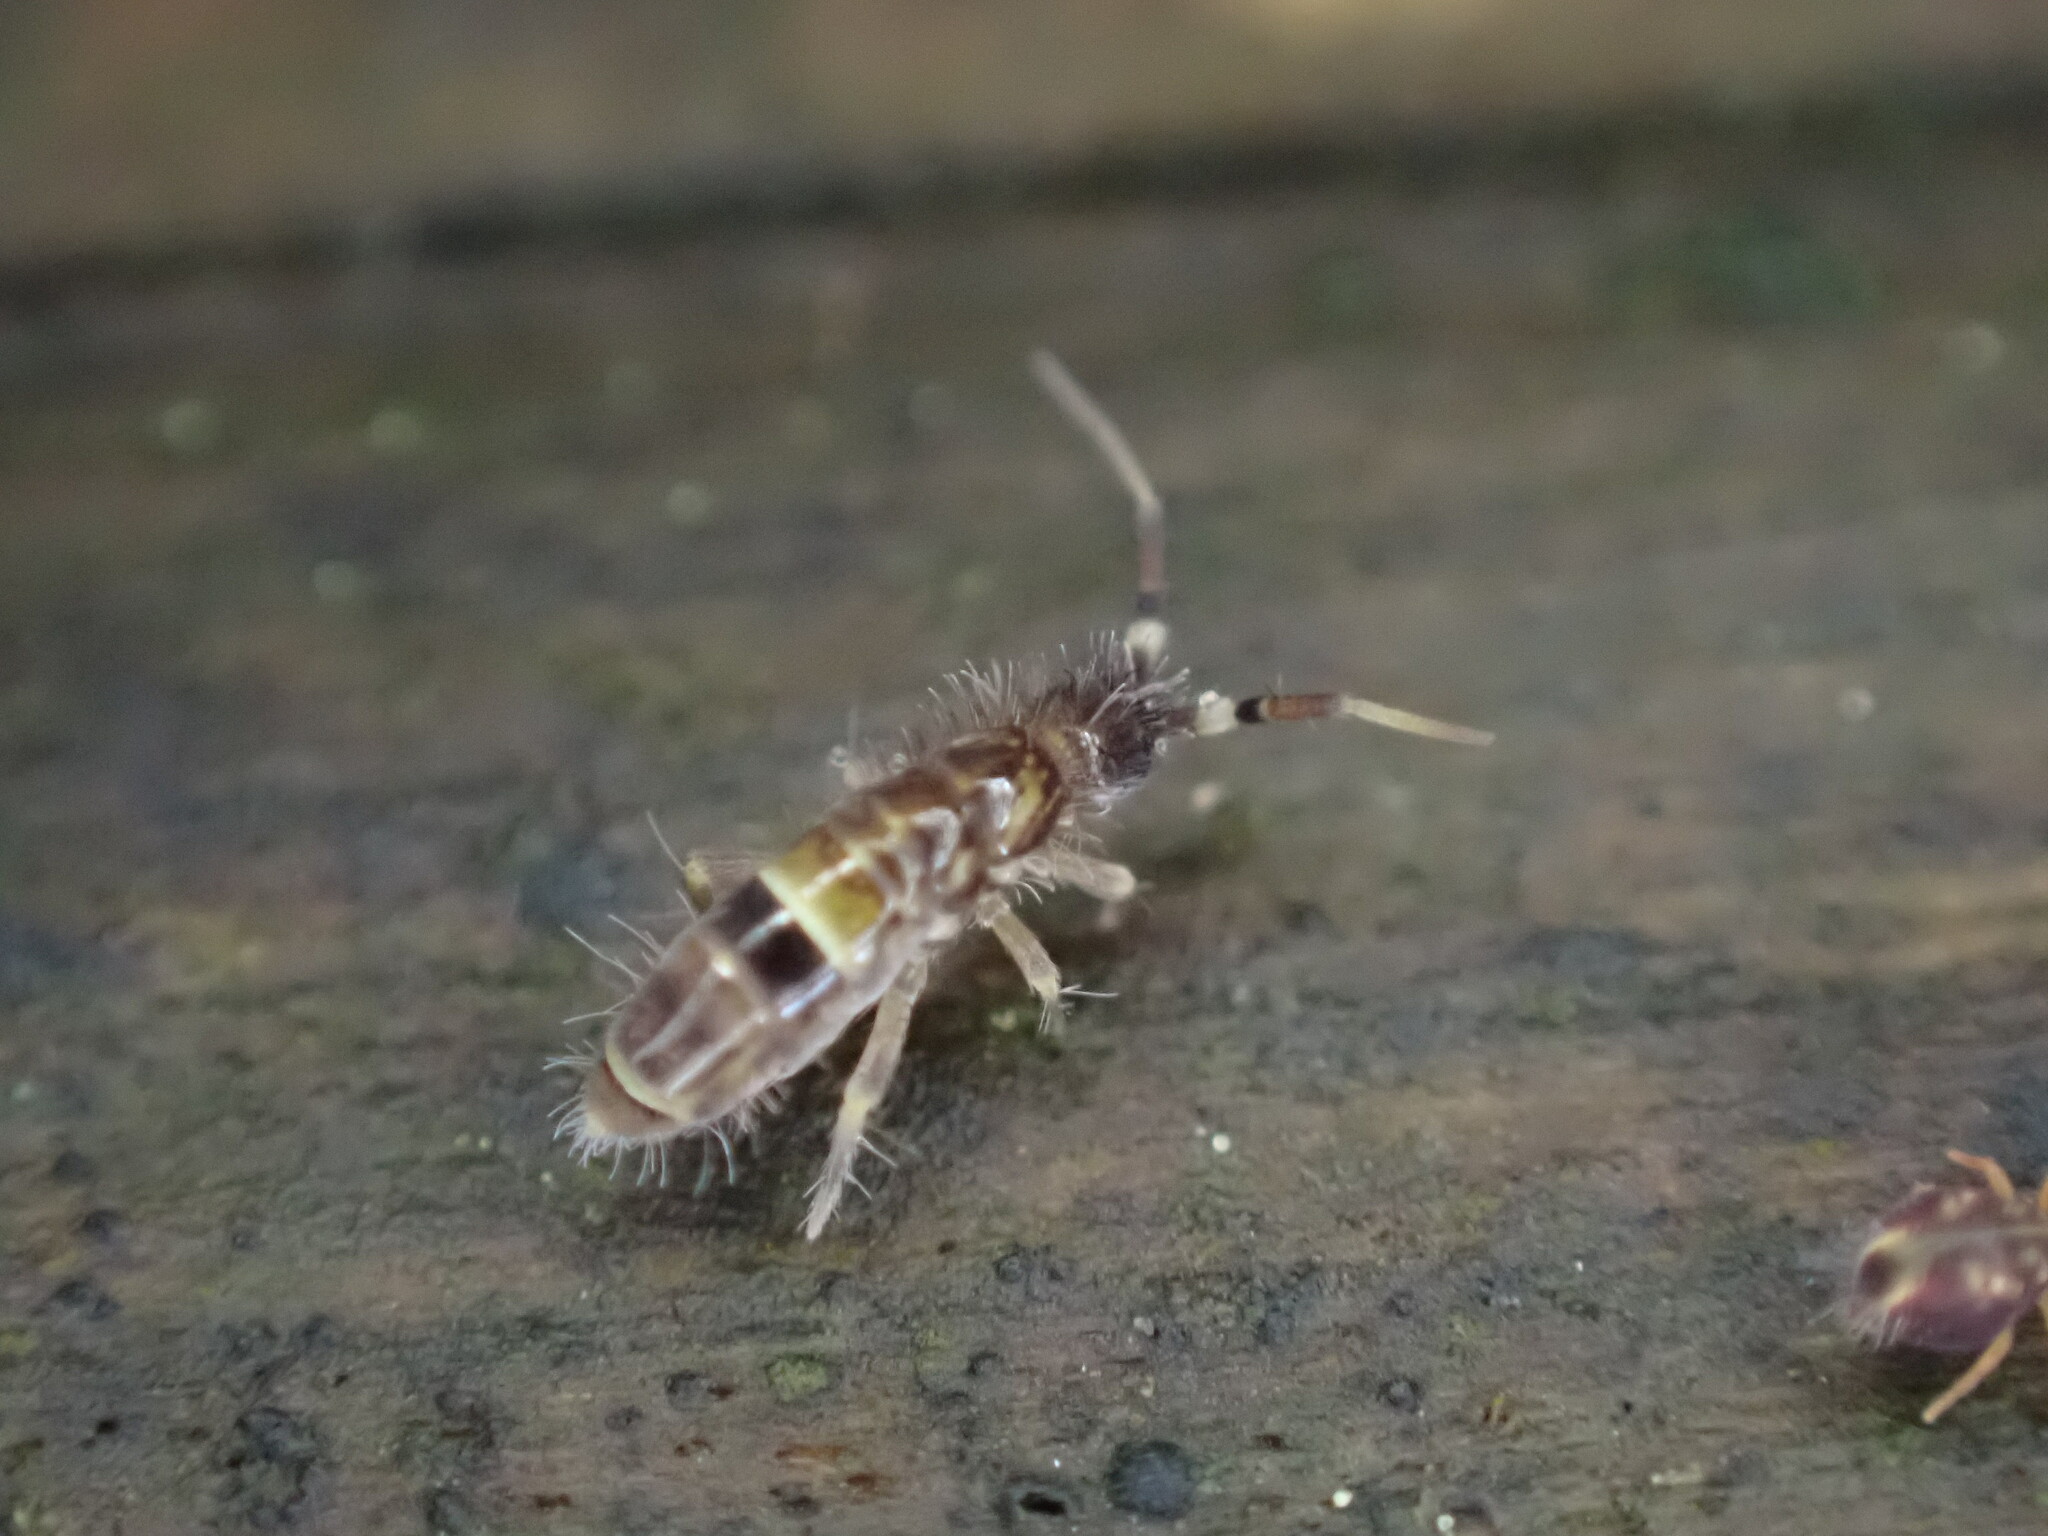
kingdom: Animalia
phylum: Arthropoda
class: Collembola
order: Entomobryomorpha
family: Orchesellidae
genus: Orchesella
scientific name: Orchesella cincta
